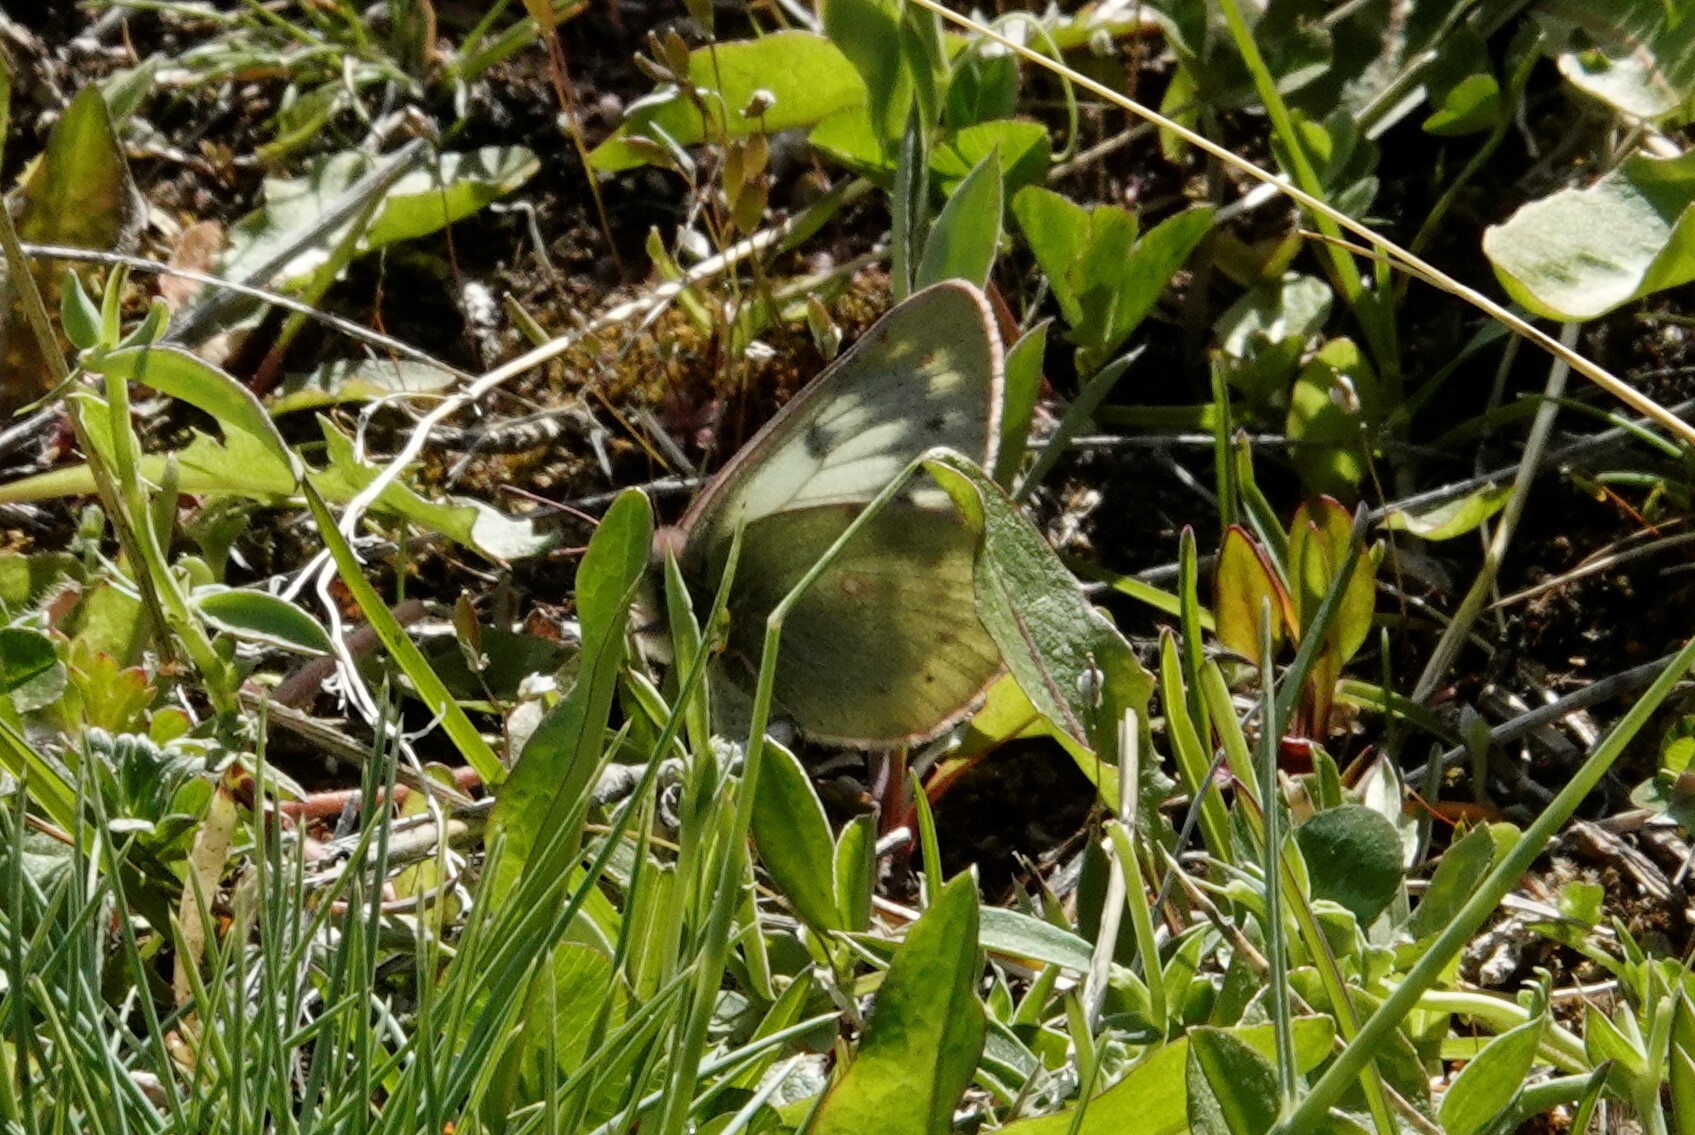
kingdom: Animalia
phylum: Arthropoda
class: Insecta
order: Lepidoptera
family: Pieridae
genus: Colias
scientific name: Colias vauthierii
